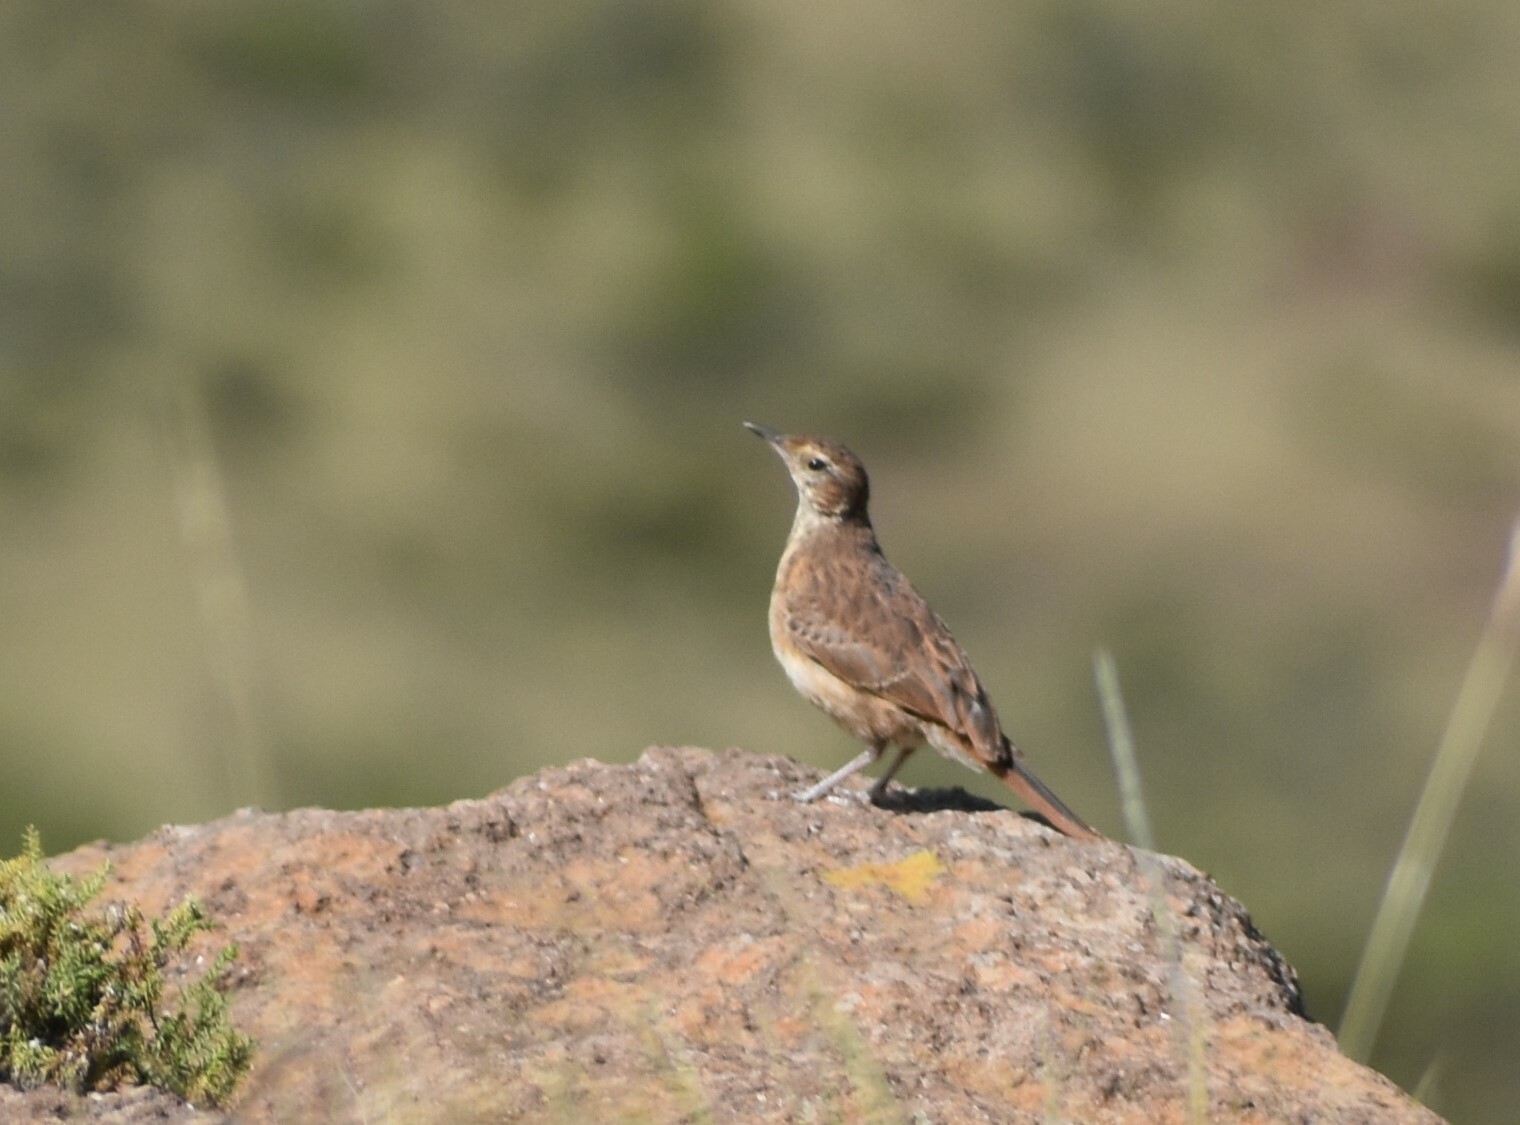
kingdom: Animalia
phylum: Chordata
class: Aves
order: Passeriformes
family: Alaudidae
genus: Certhilauda
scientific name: Certhilauda semitorquata
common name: Eastern long-billed lark
